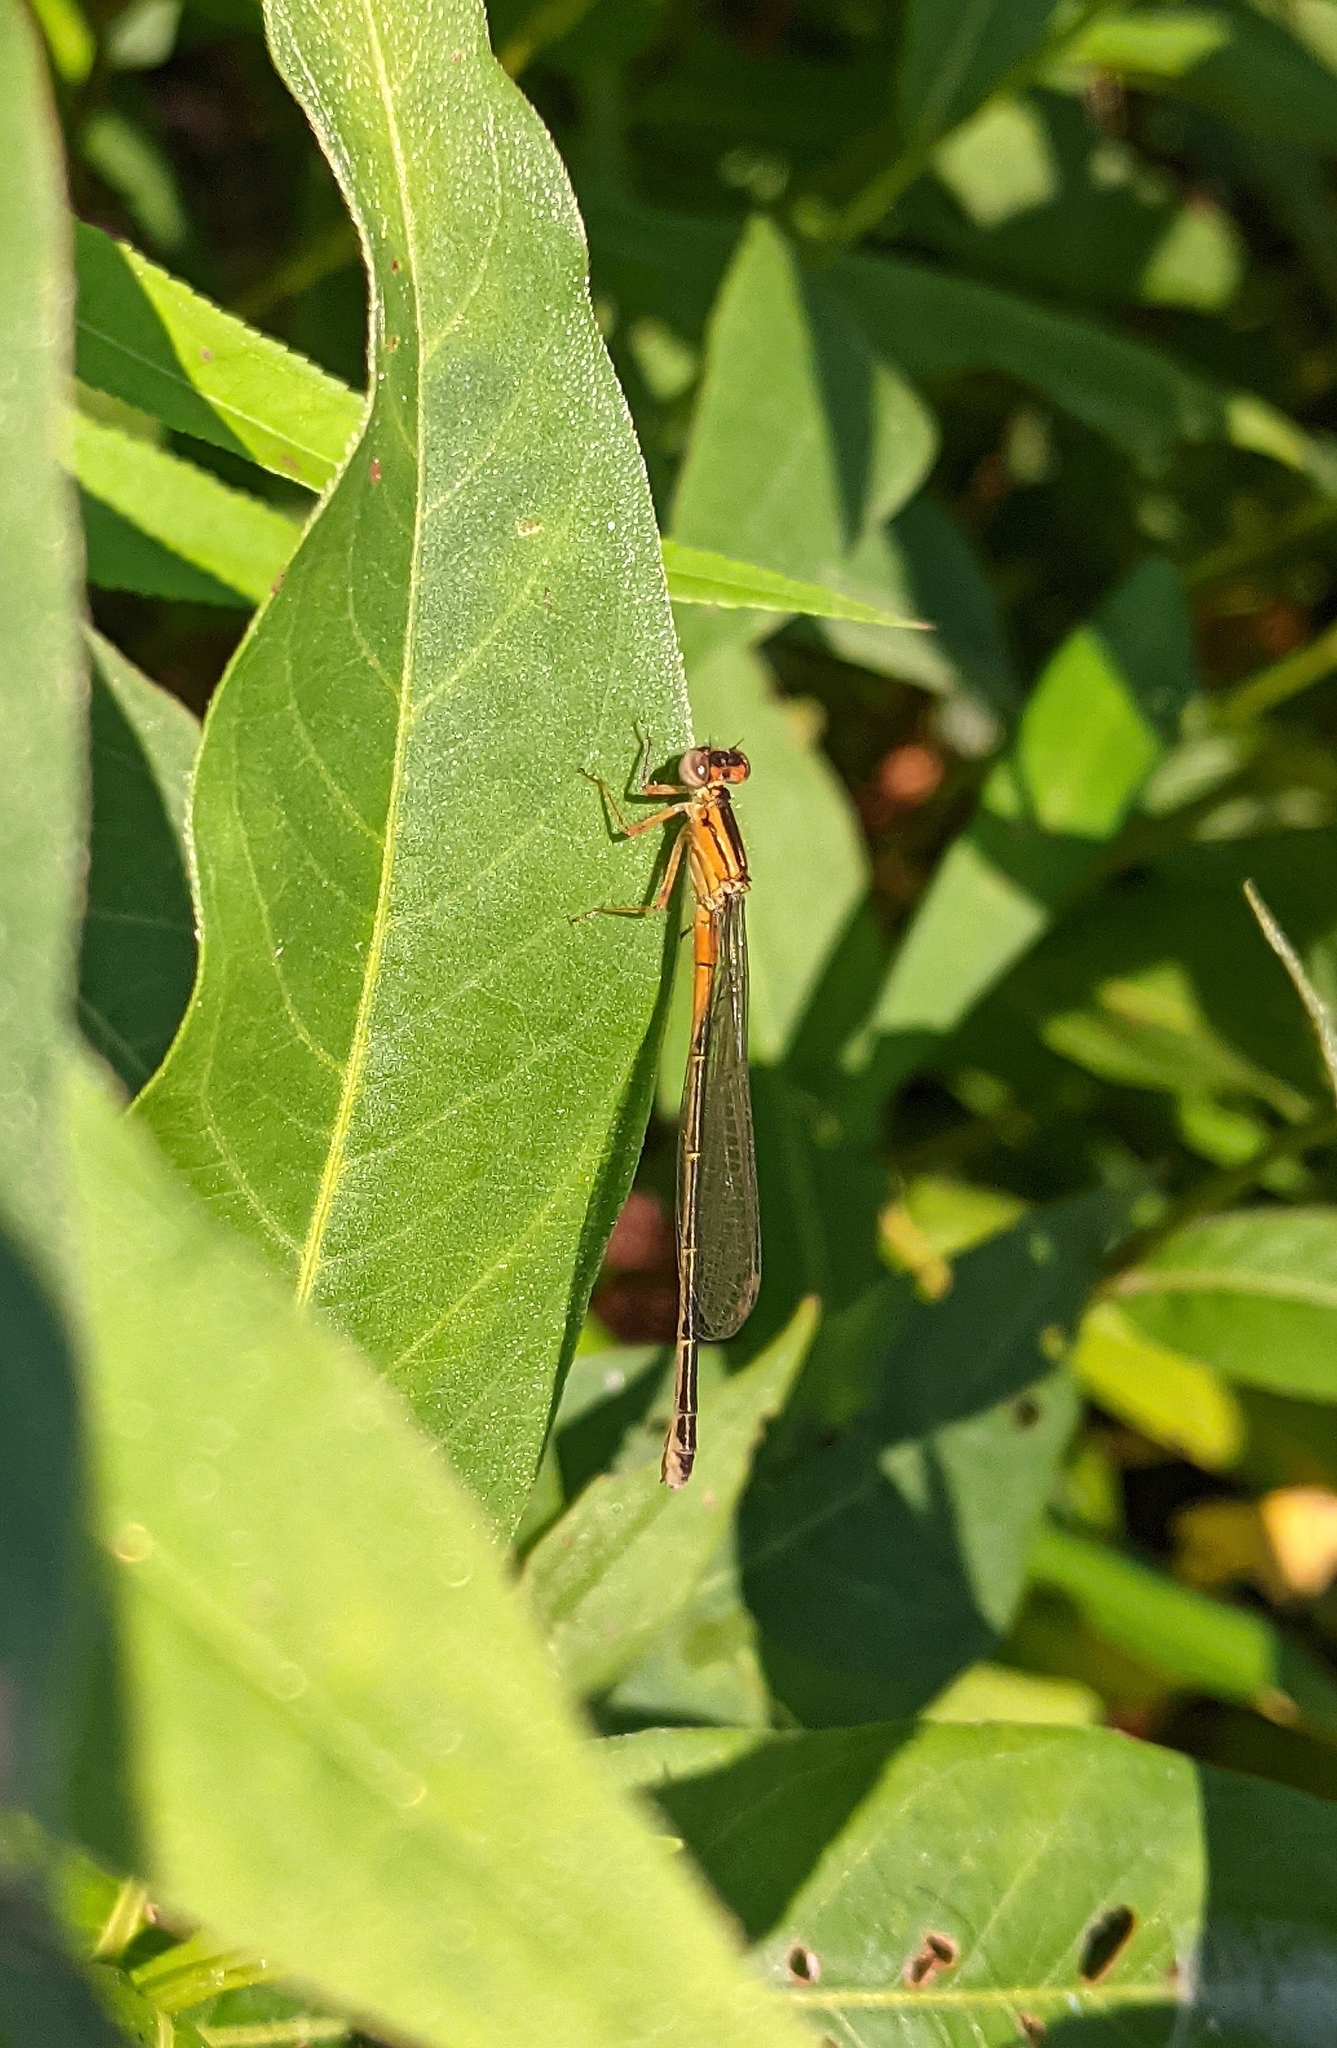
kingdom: Animalia
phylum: Arthropoda
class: Insecta
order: Odonata
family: Coenagrionidae
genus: Ischnura
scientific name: Ischnura verticalis
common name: Eastern forktail
